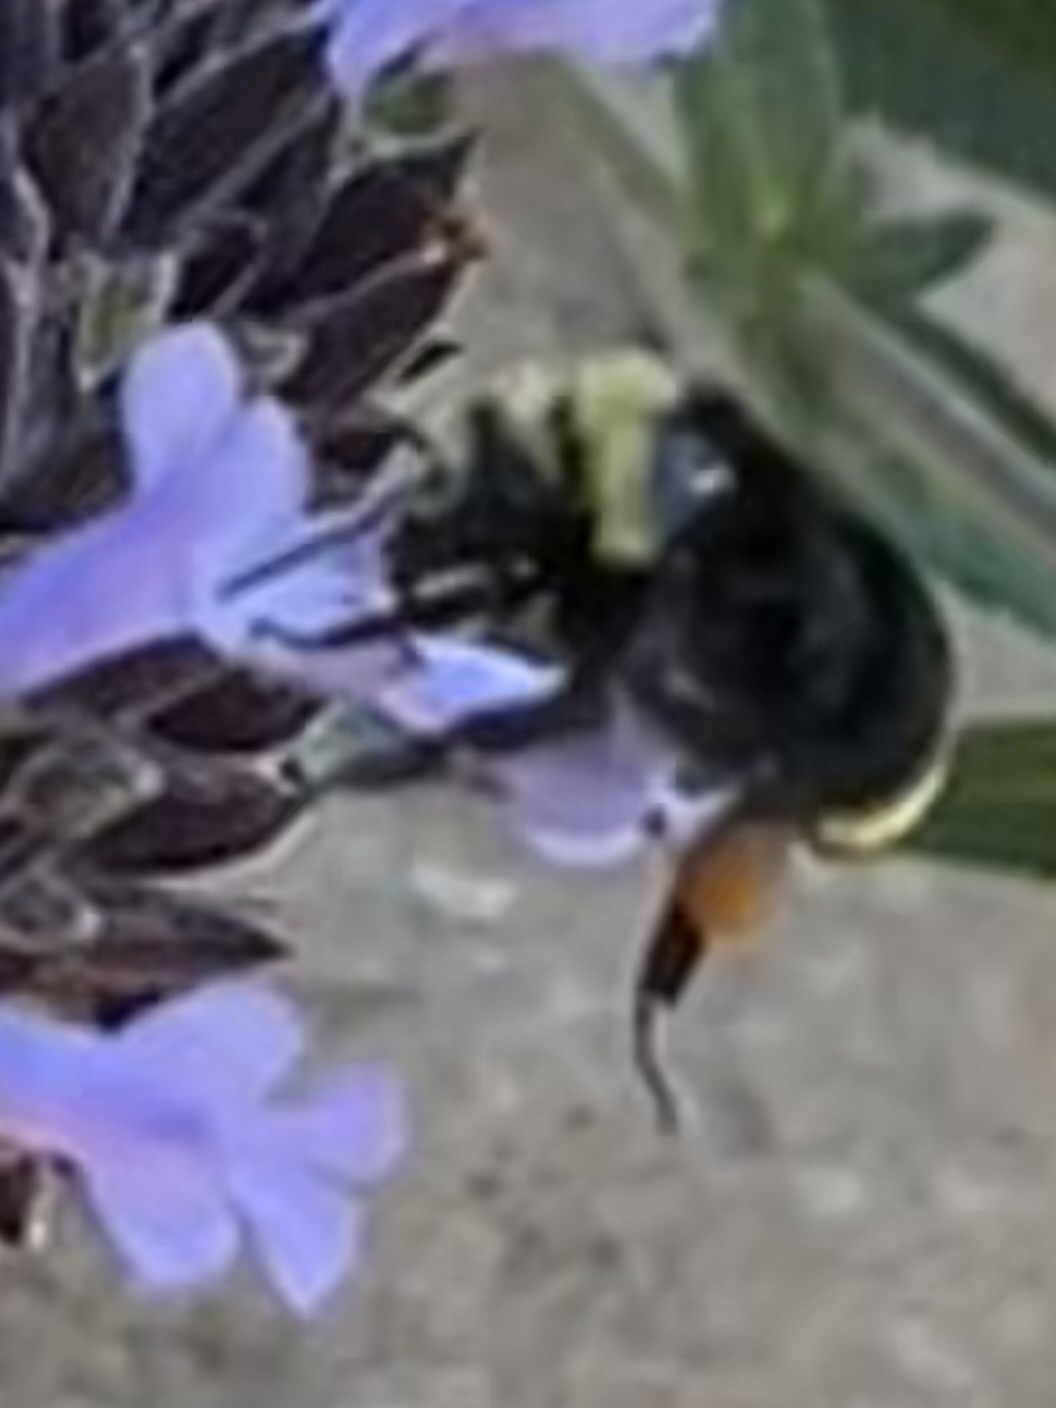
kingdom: Animalia
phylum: Arthropoda
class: Insecta
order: Hymenoptera
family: Apidae
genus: Bombus
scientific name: Bombus vosnesenskii
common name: Vosnesensky bumble bee
